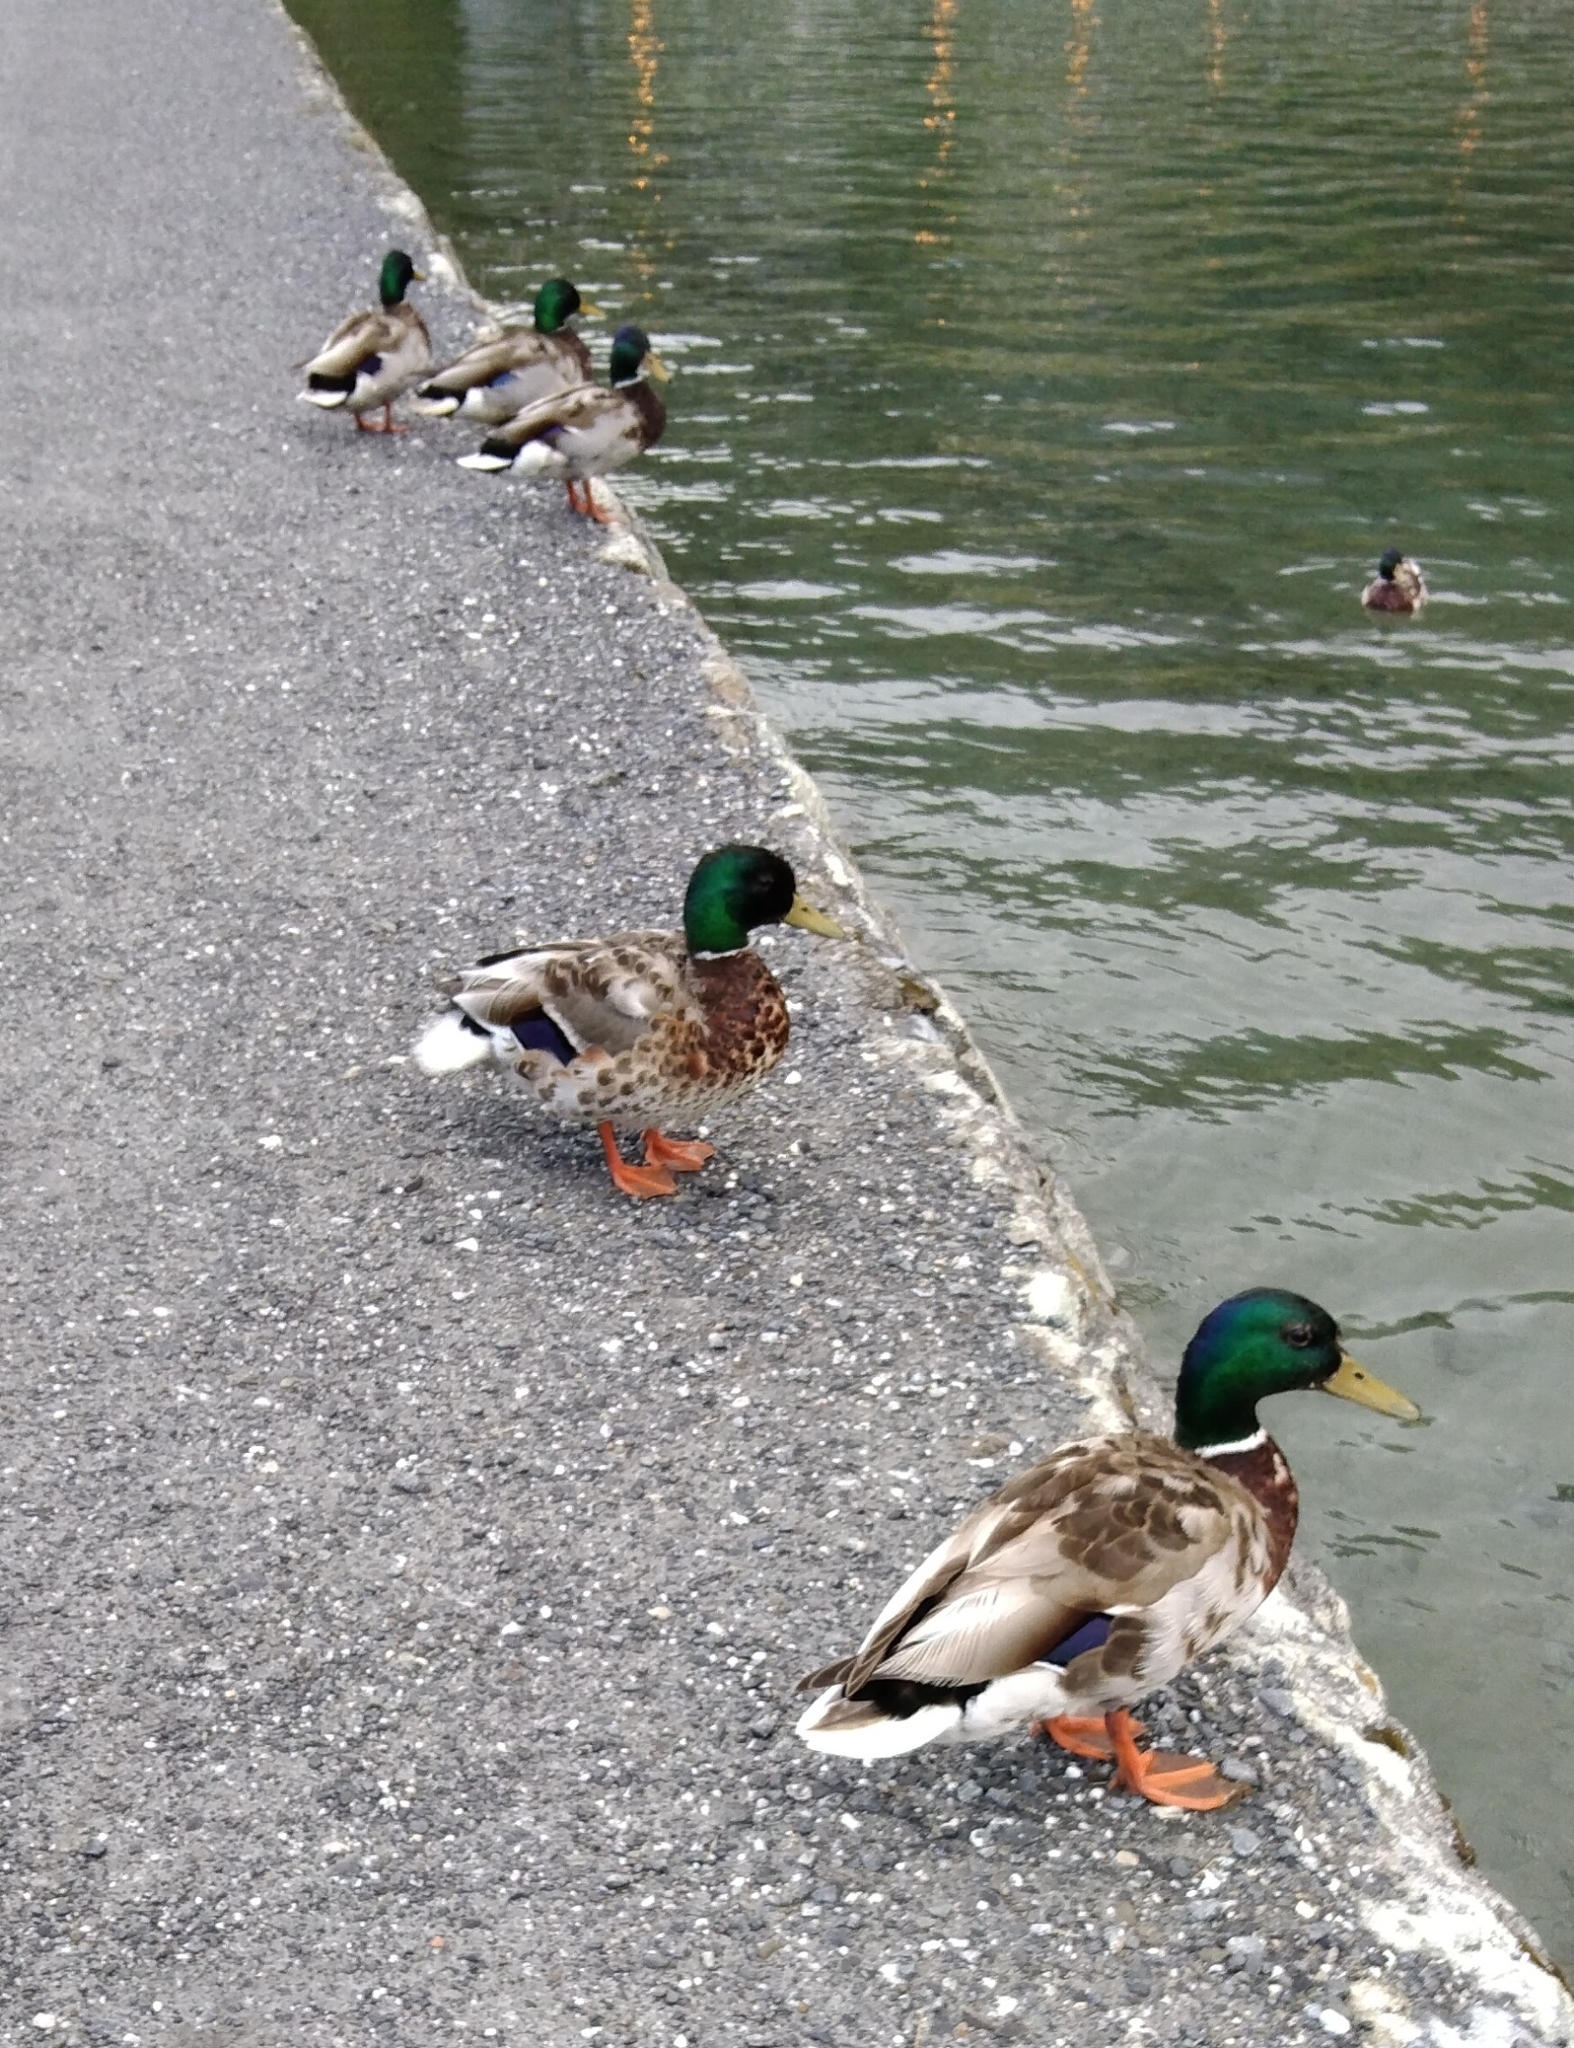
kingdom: Animalia
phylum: Chordata
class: Aves
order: Anseriformes
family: Anatidae
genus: Anas
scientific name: Anas platyrhynchos
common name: Mallard
